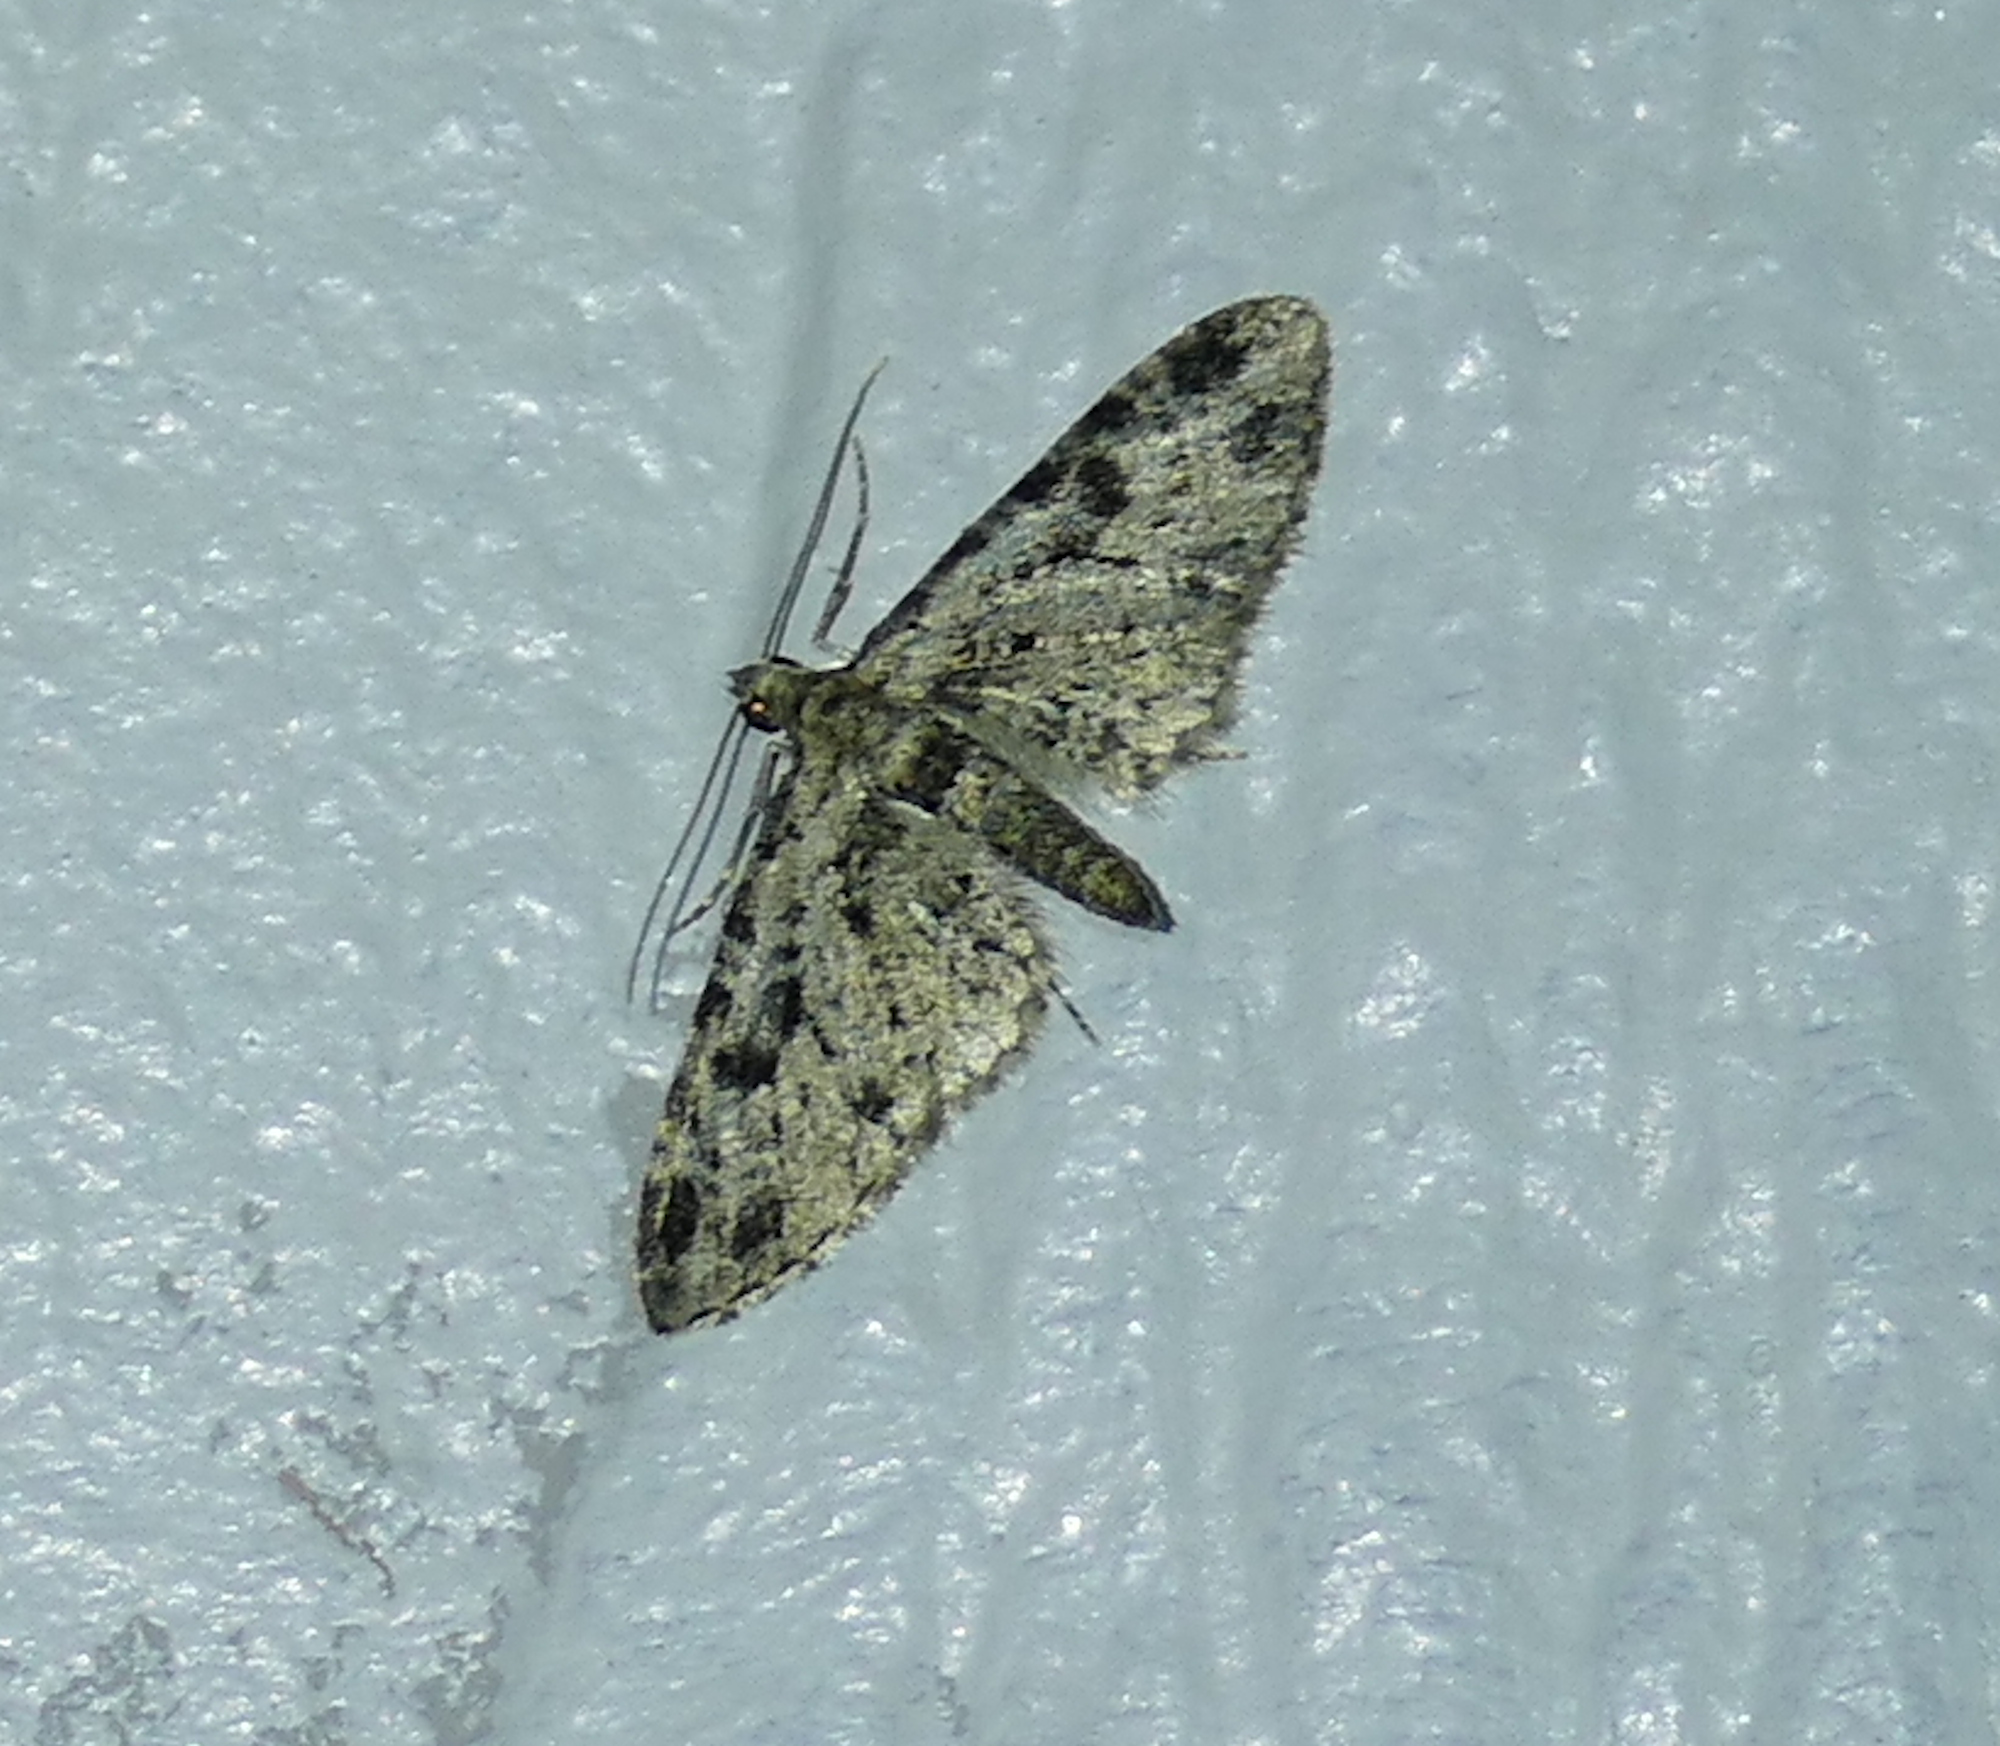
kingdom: Animalia
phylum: Arthropoda
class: Insecta
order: Lepidoptera
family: Geometridae
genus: Eupithecia
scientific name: Eupithecia
